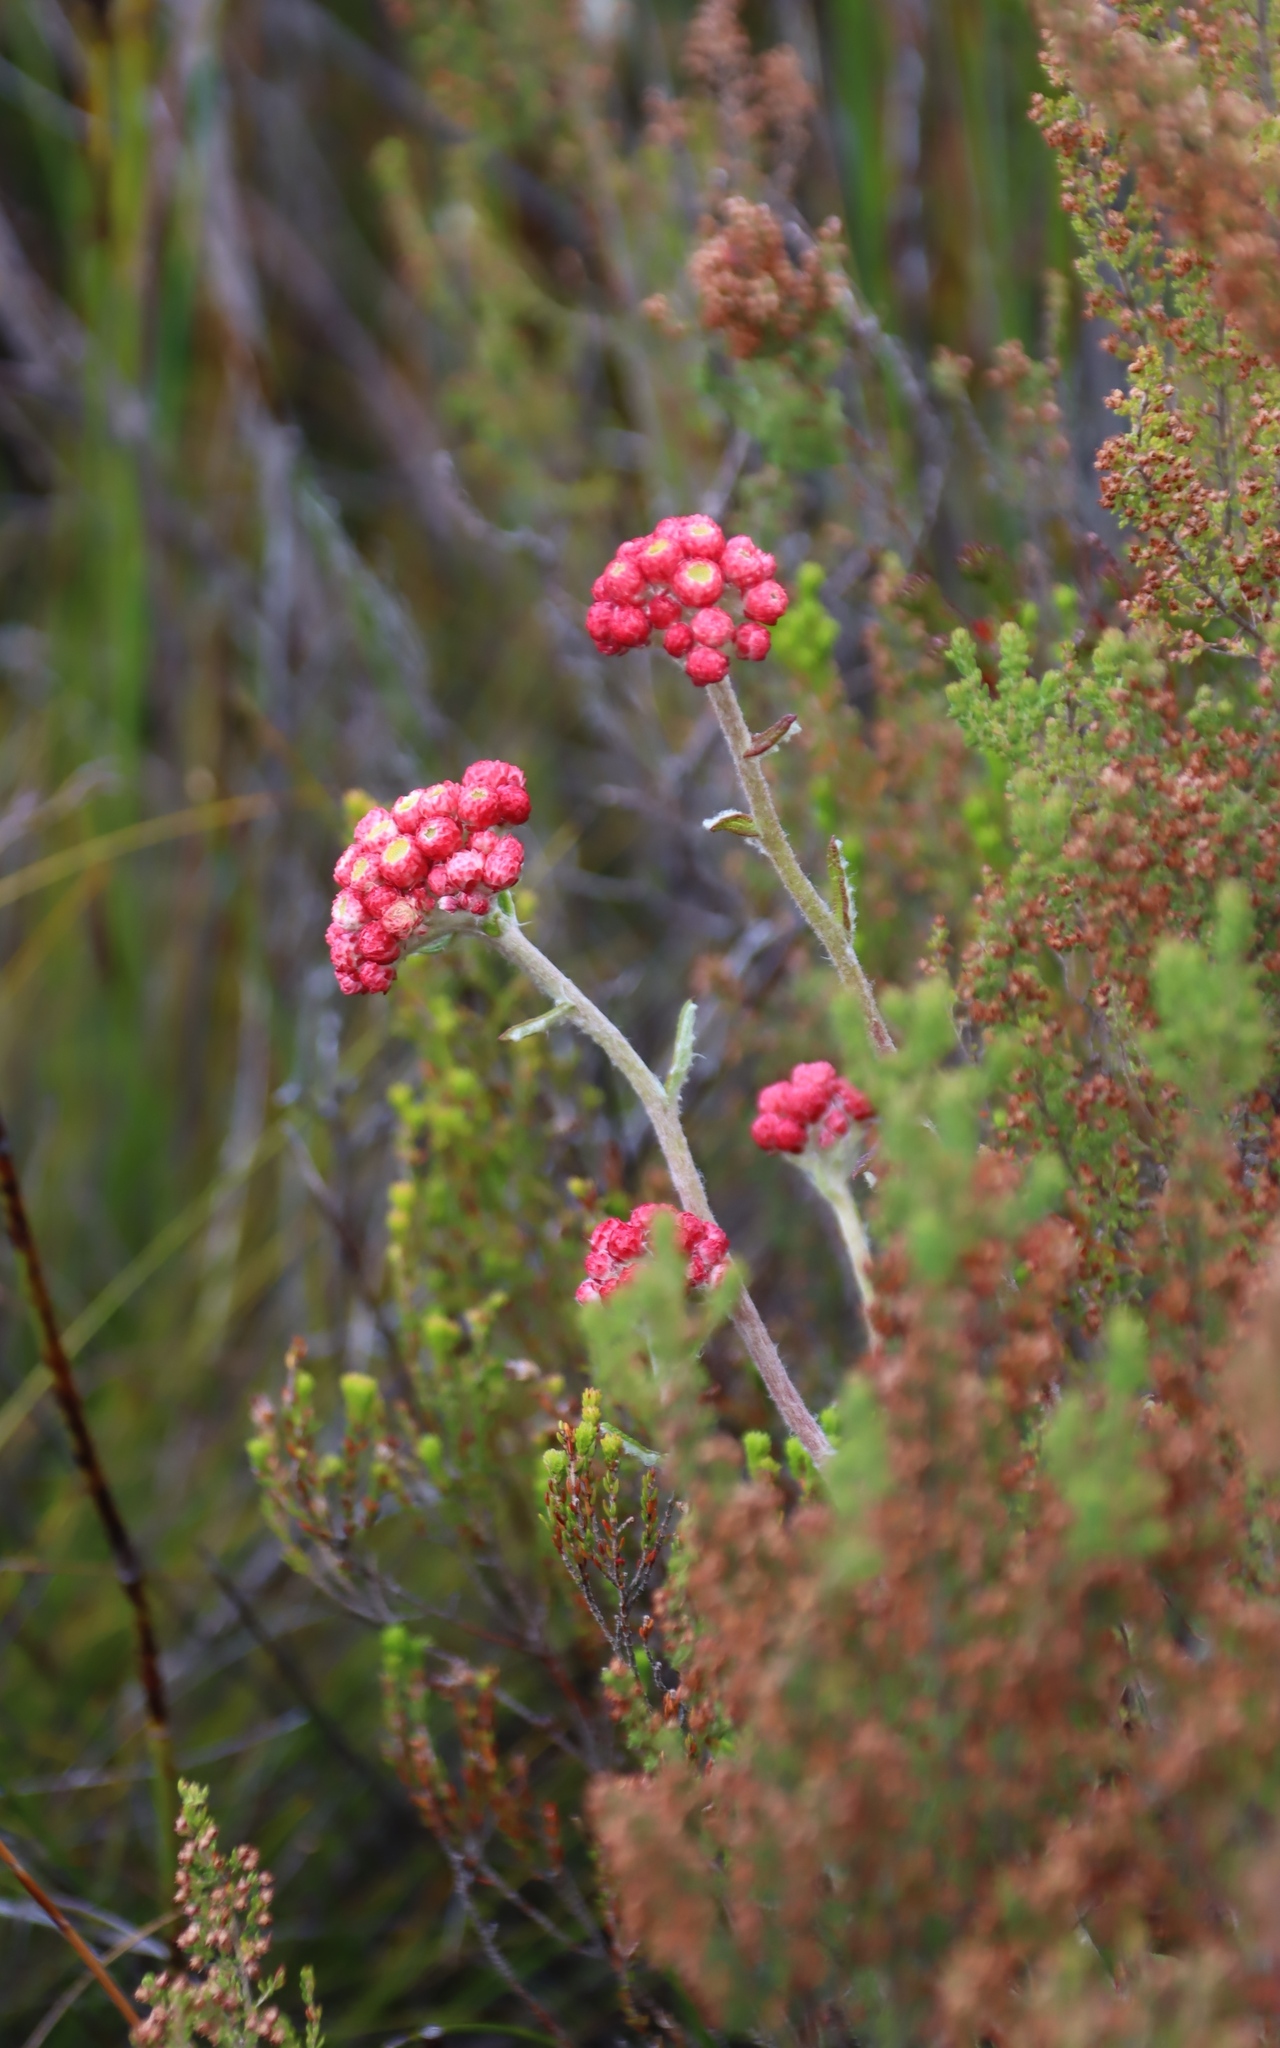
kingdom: Plantae
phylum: Tracheophyta
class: Magnoliopsida
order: Asterales
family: Asteraceae
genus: Helichrysum
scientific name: Helichrysum felinum
